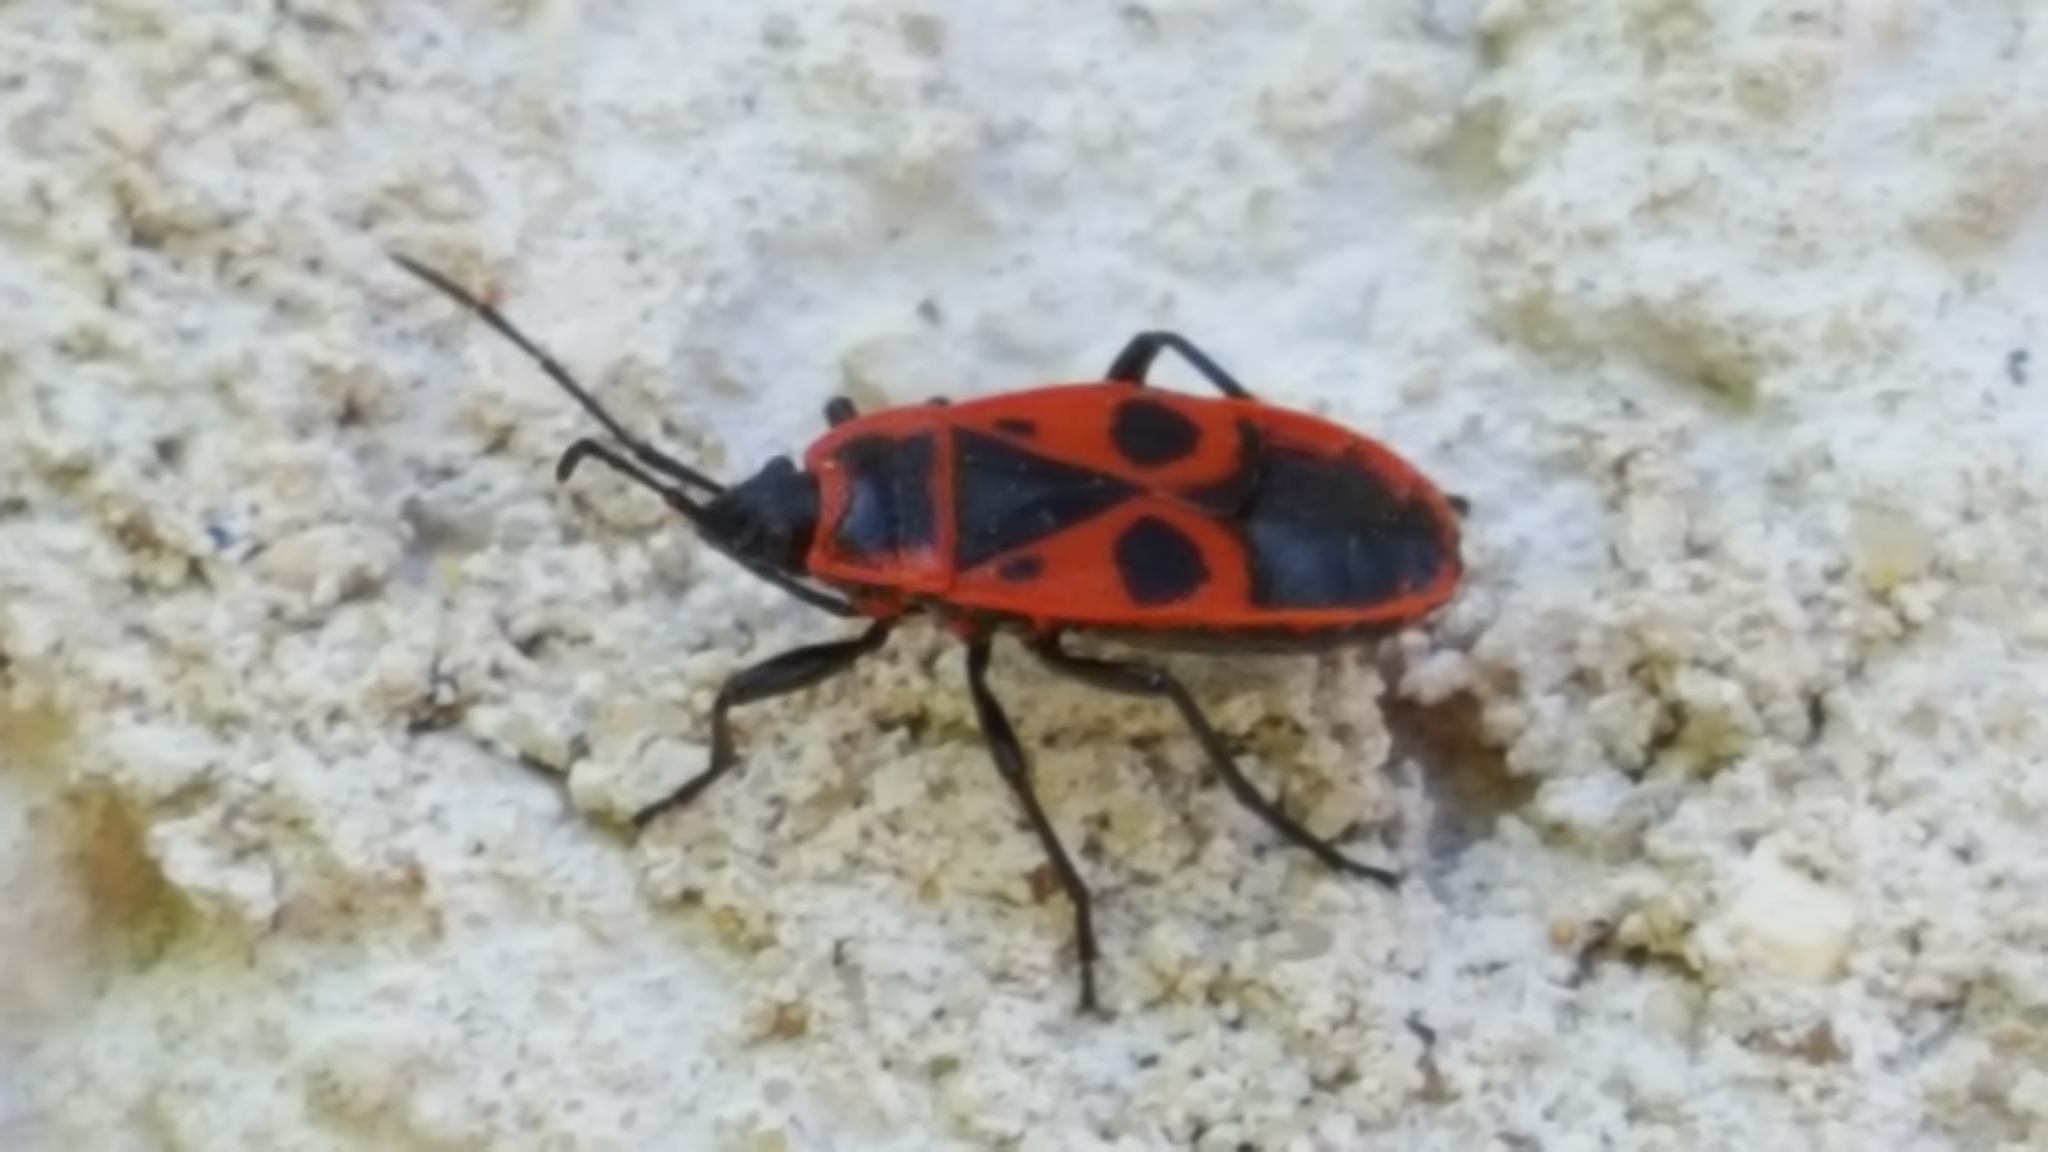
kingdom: Animalia
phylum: Arthropoda
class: Insecta
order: Hemiptera
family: Pyrrhocoridae
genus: Pyrrhocoris
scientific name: Pyrrhocoris apterus
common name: Firebug
